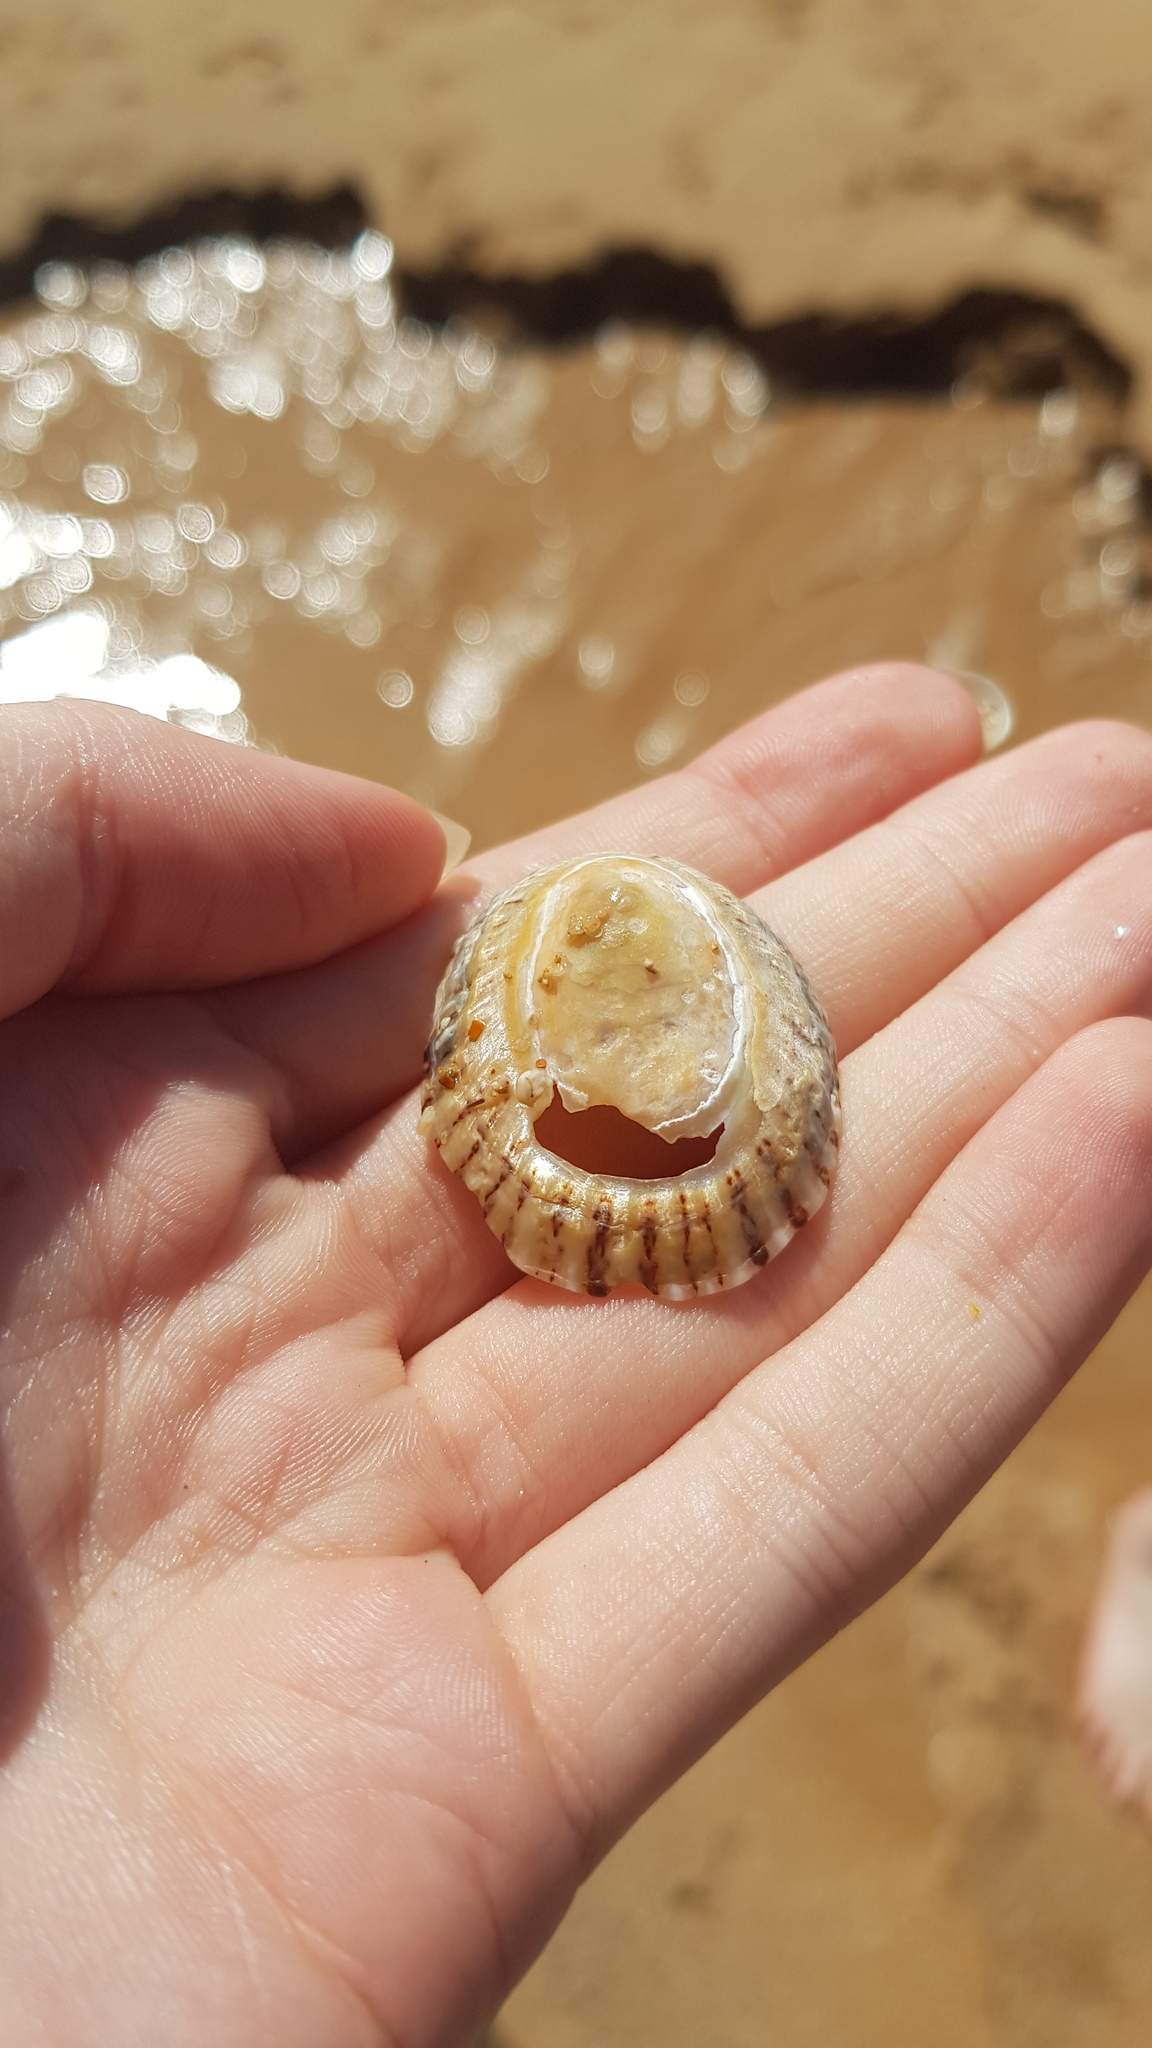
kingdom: Animalia
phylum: Mollusca
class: Gastropoda
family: Nacellidae
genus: Cellana
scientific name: Cellana tramoserica
